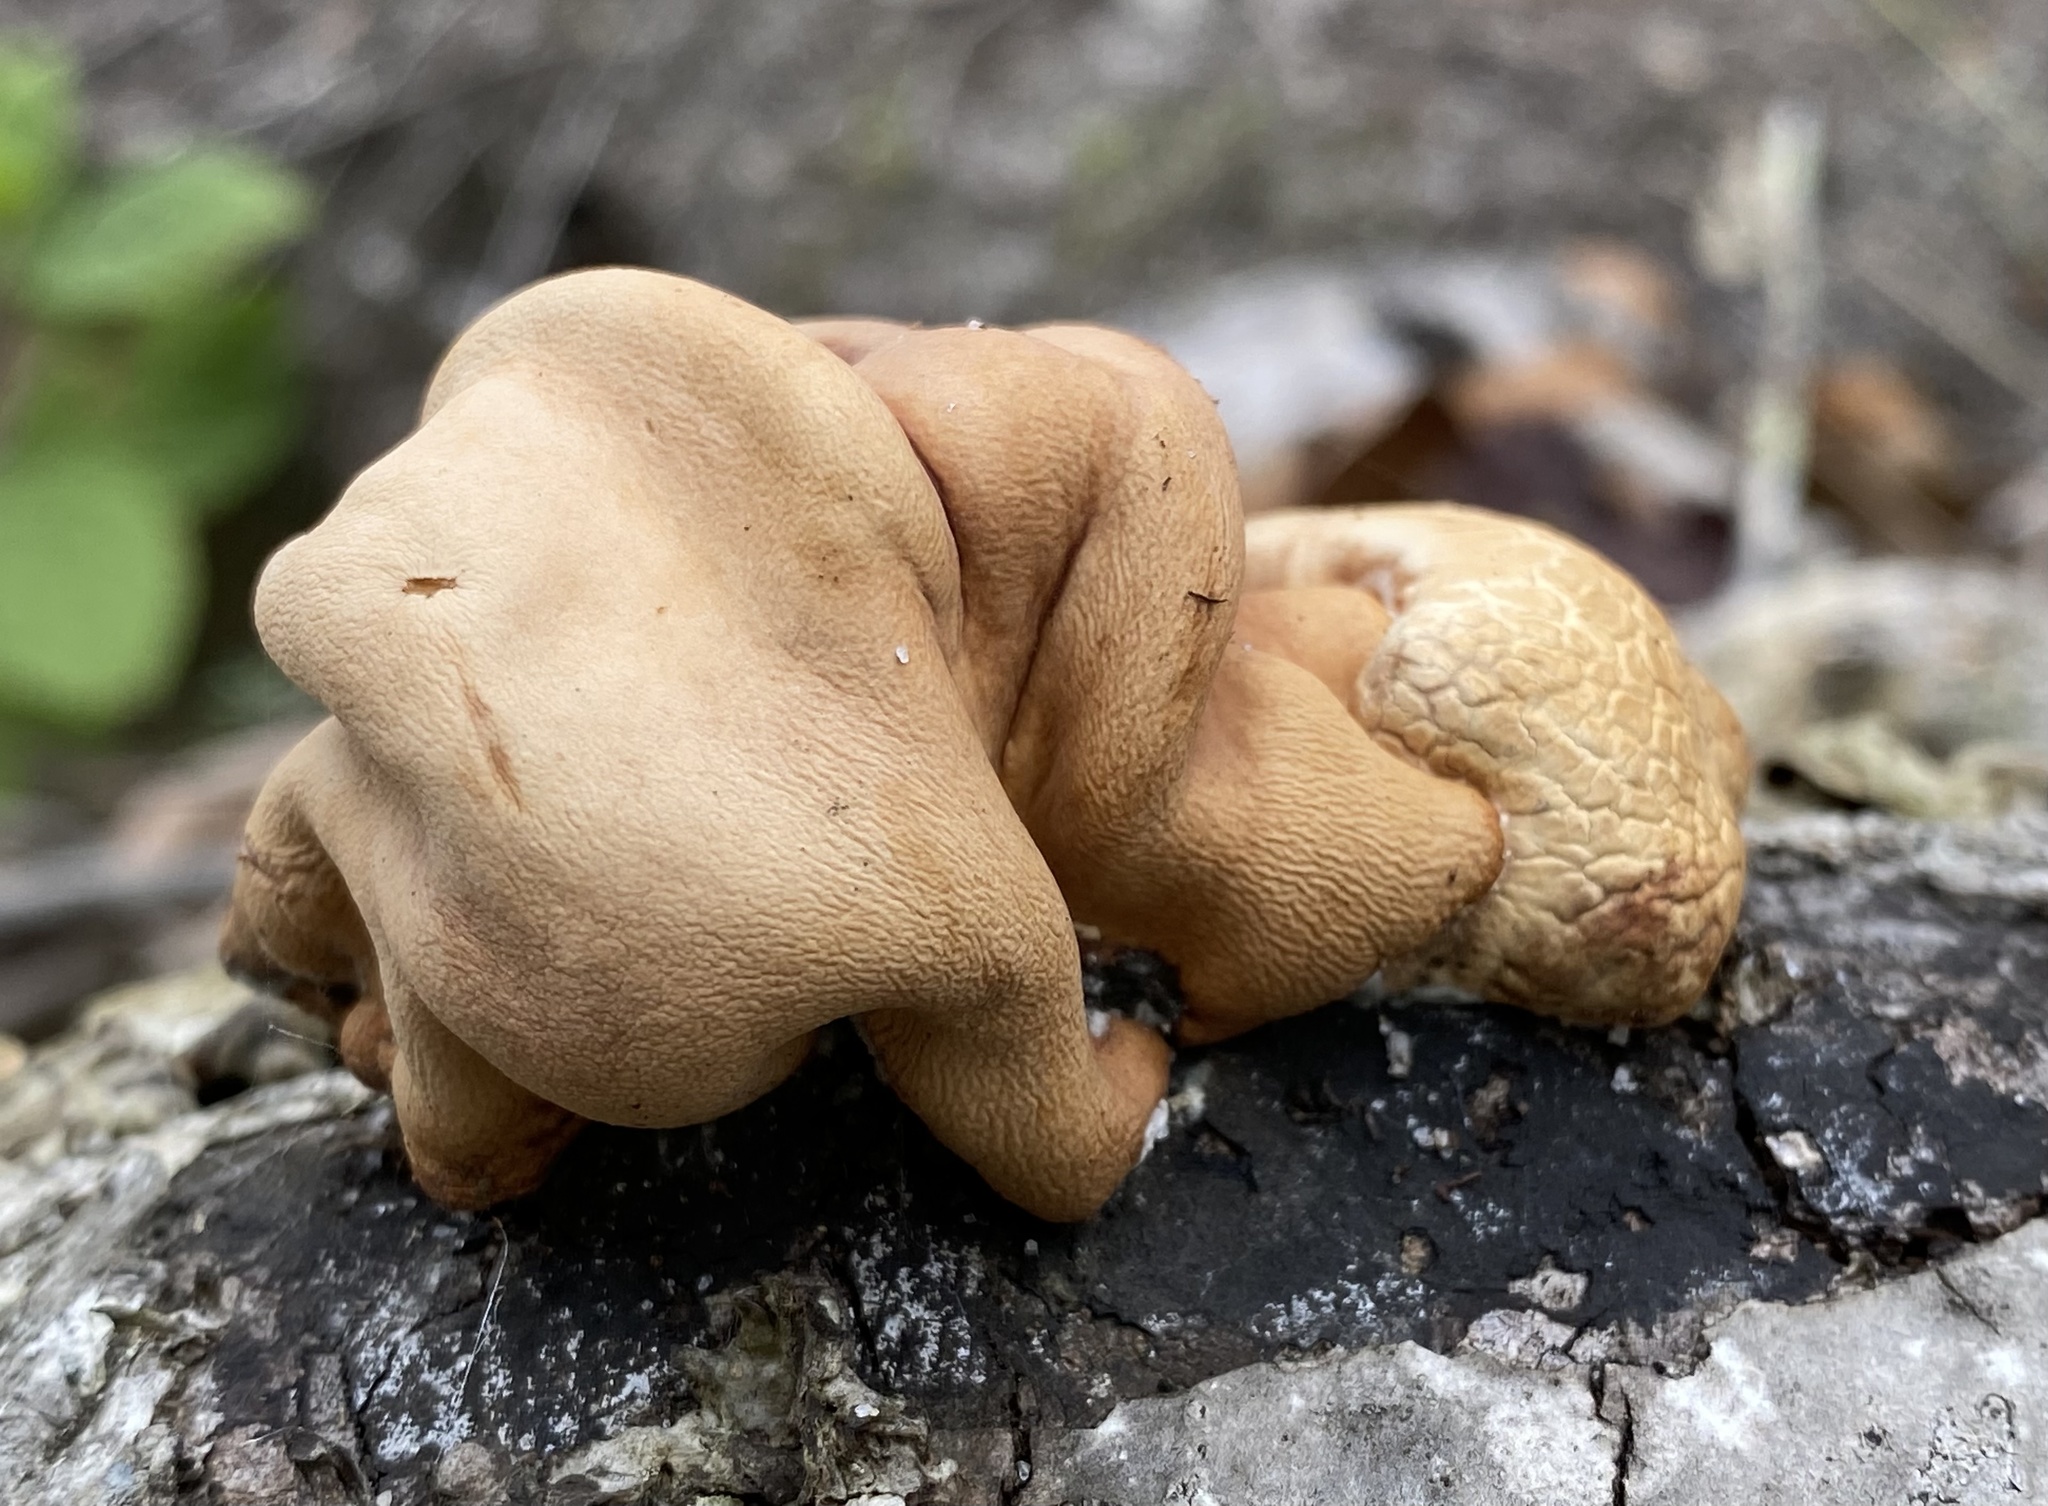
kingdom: Fungi
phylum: Ascomycota
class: Sordariomycetes
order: Hypocreales
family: Hypocreaceae
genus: Trichoderma
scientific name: Trichoderma peltatum
